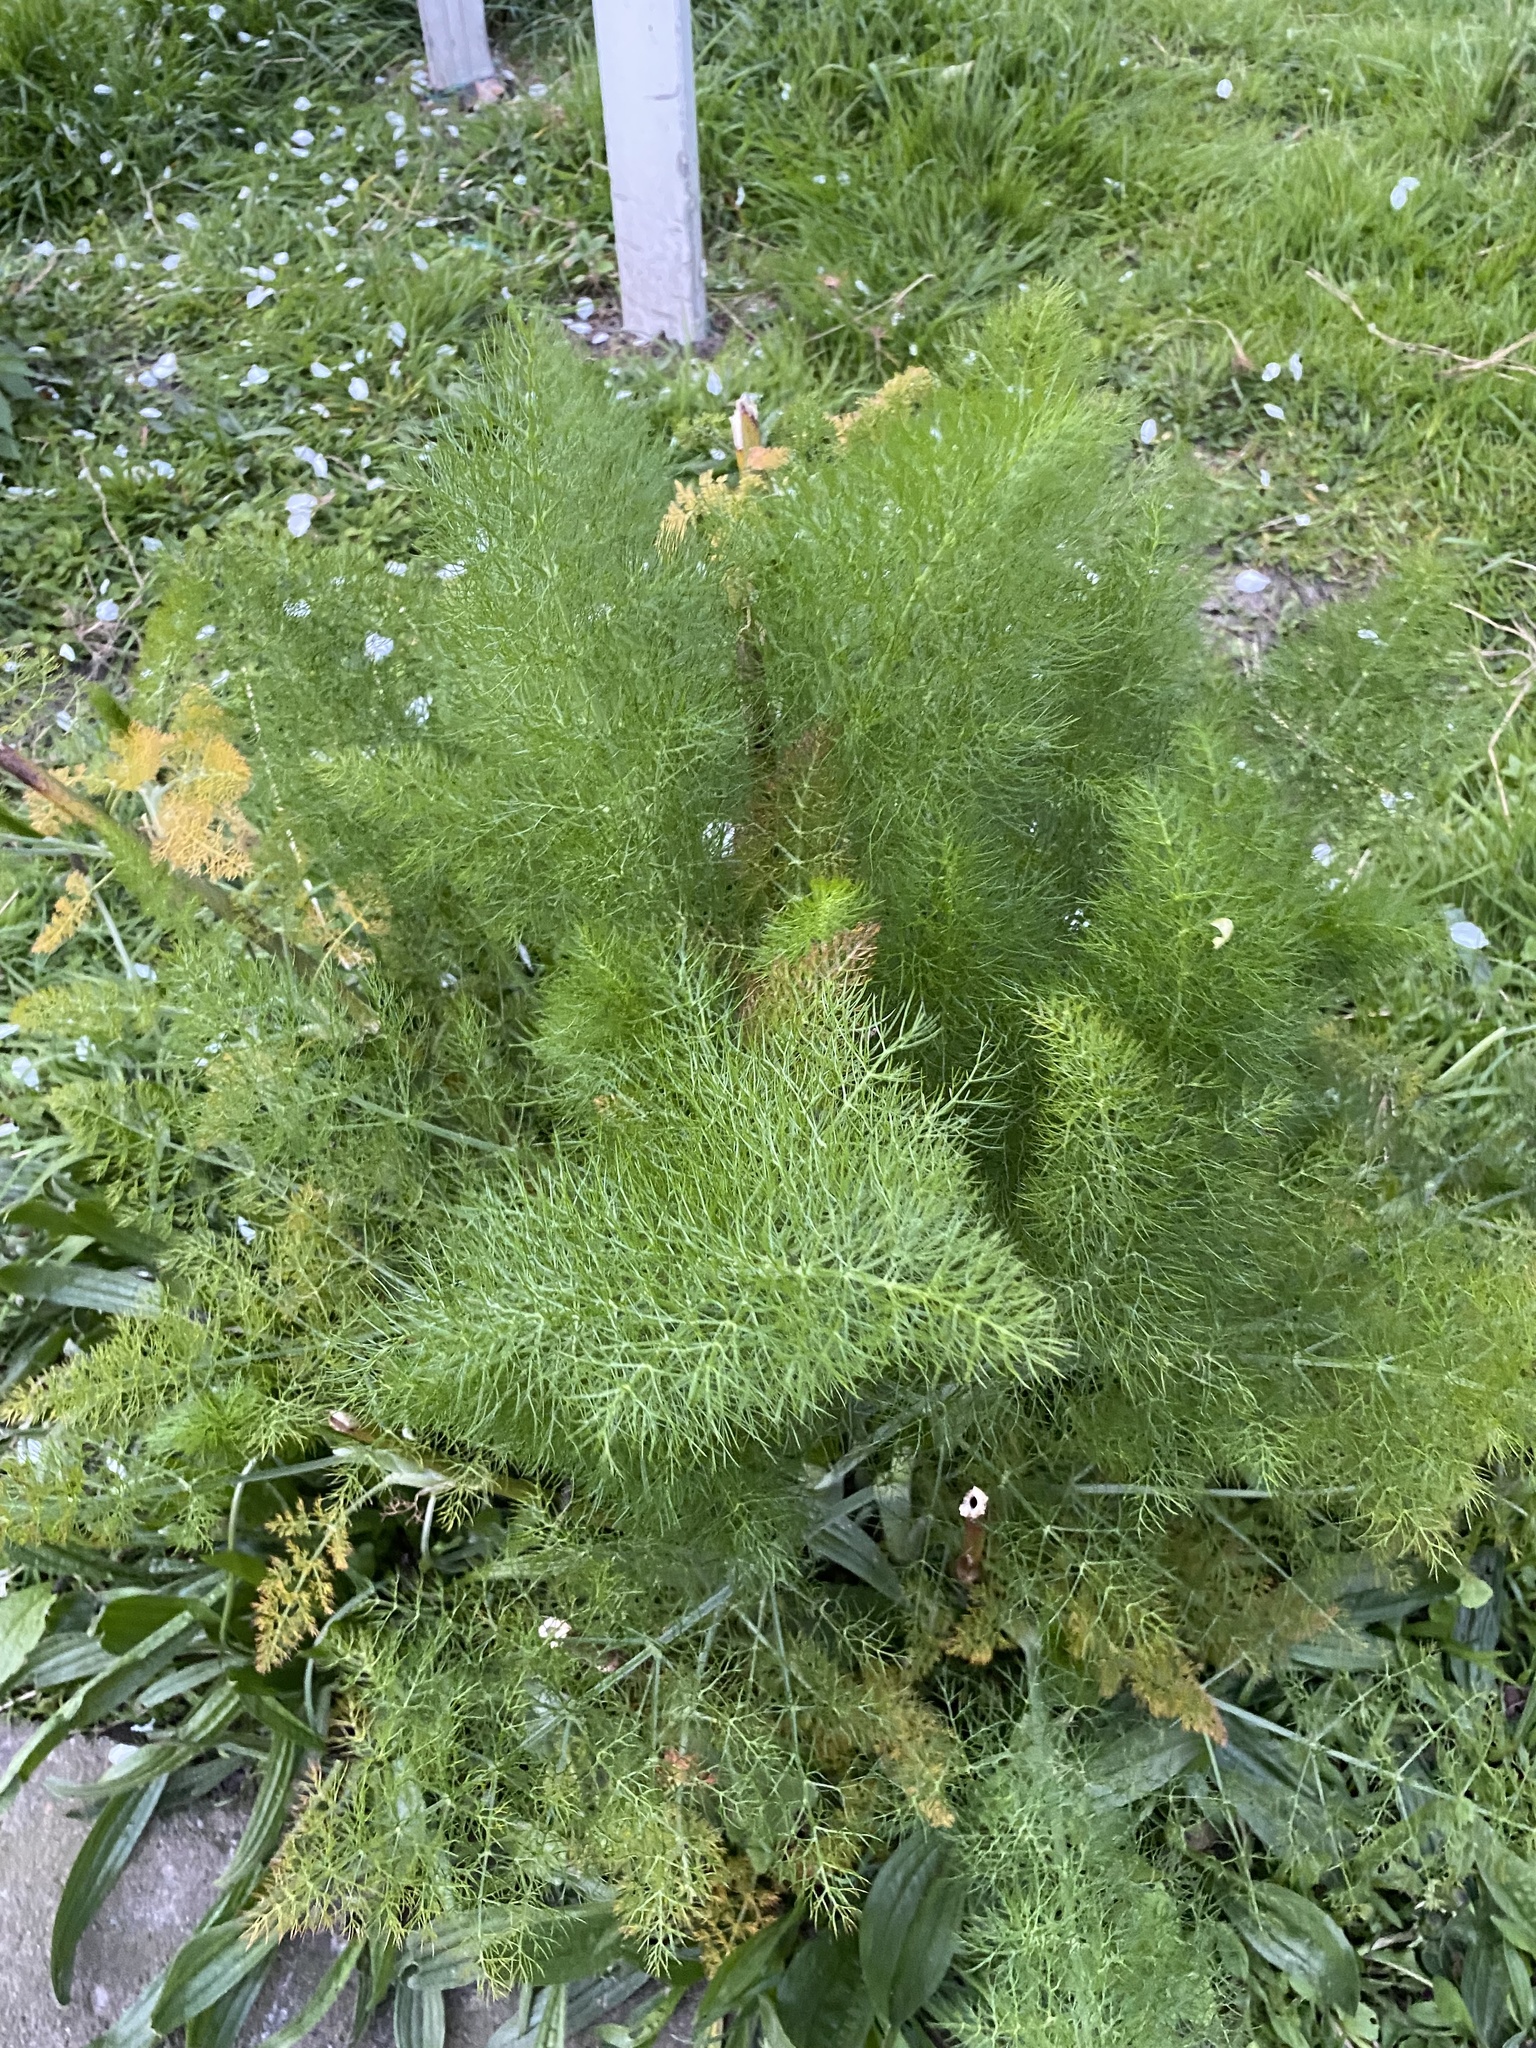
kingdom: Plantae
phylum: Tracheophyta
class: Magnoliopsida
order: Apiales
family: Apiaceae
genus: Foeniculum
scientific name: Foeniculum vulgare
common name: Fennel
